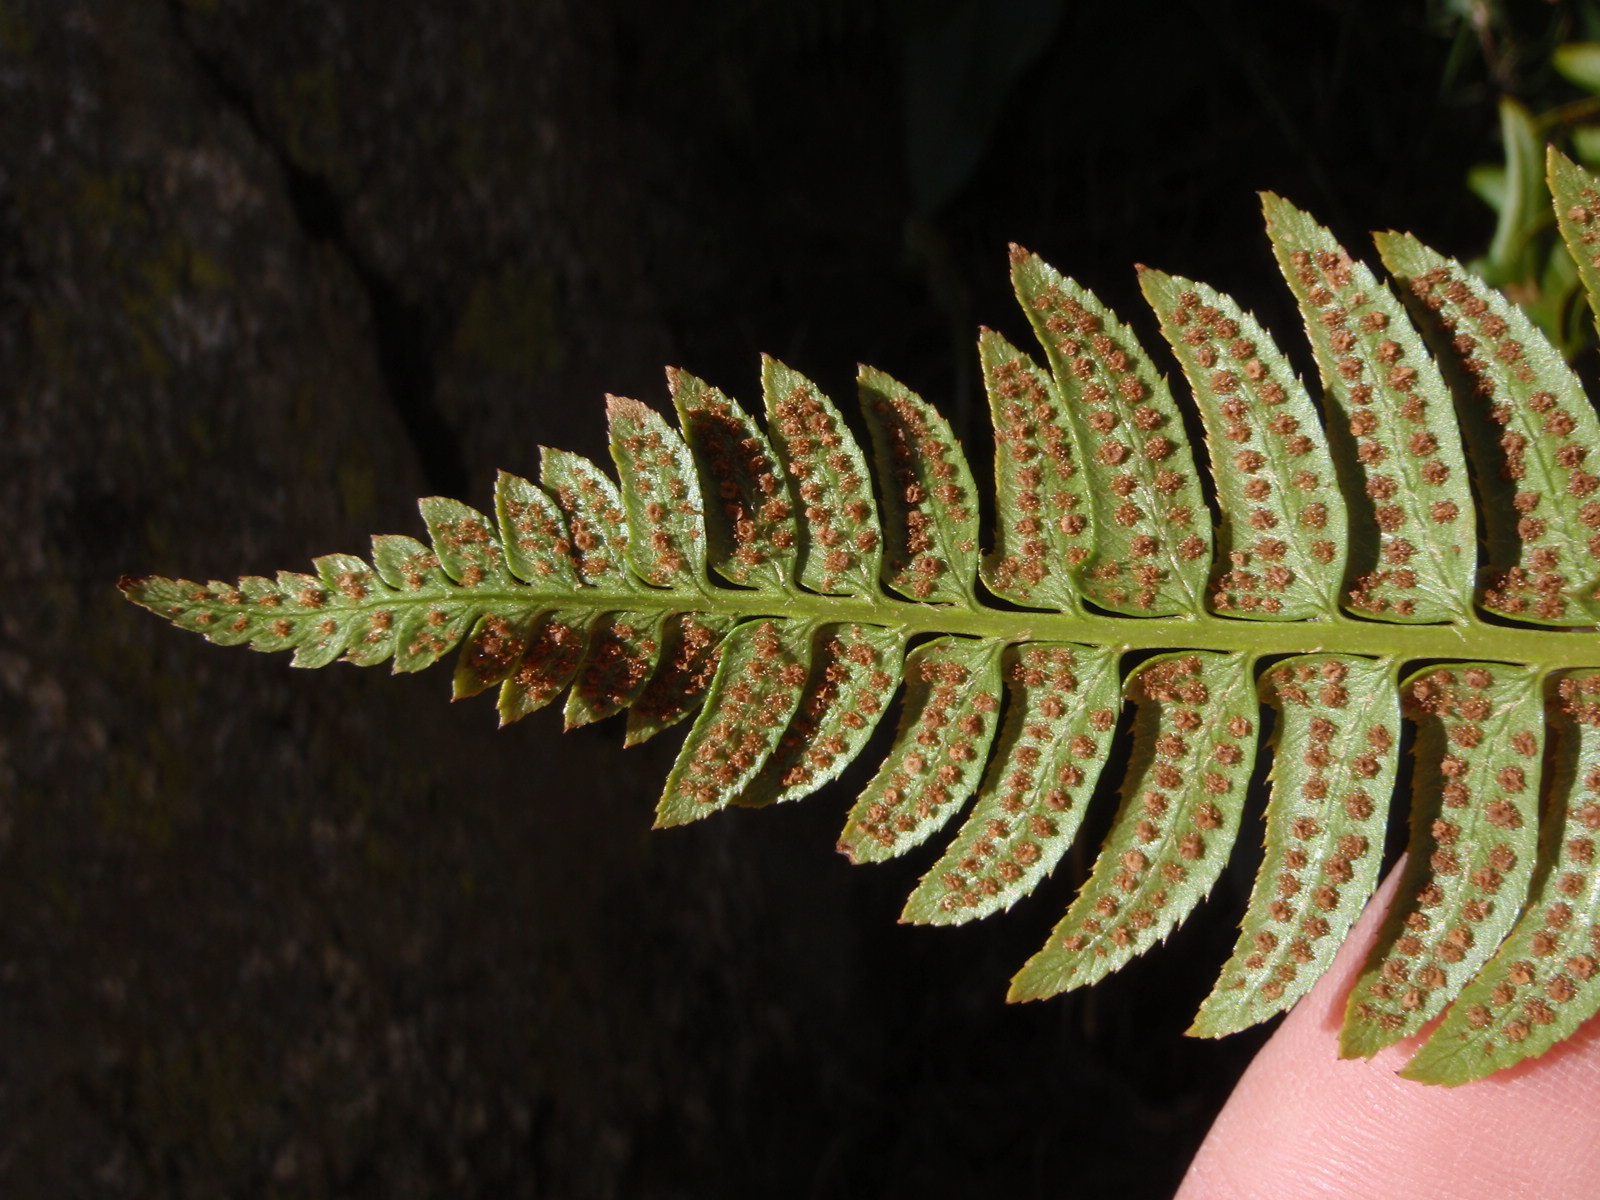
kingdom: Plantae
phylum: Tracheophyta
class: Polypodiopsida
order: Polypodiales
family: Dryopteridaceae
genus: Polystichum
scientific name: Polystichum lonchitis
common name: Holly fern
